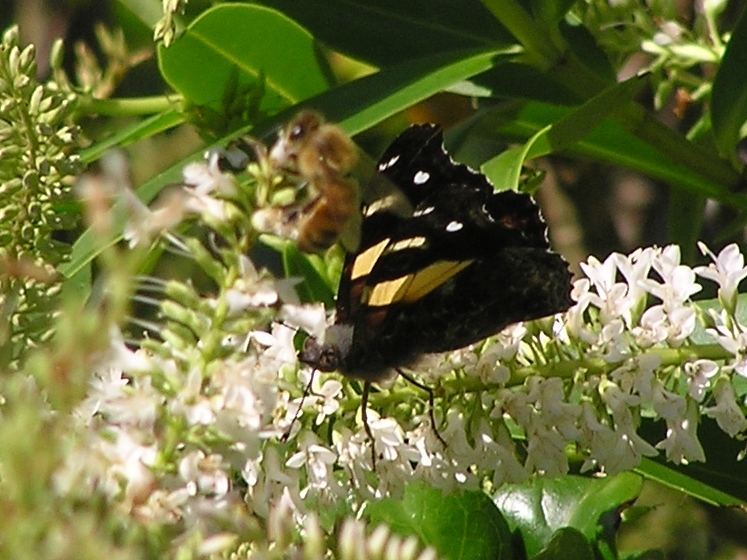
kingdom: Animalia
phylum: Arthropoda
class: Insecta
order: Lepidoptera
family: Nymphalidae
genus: Vanessa
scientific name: Vanessa itea
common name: Yellow admiral
